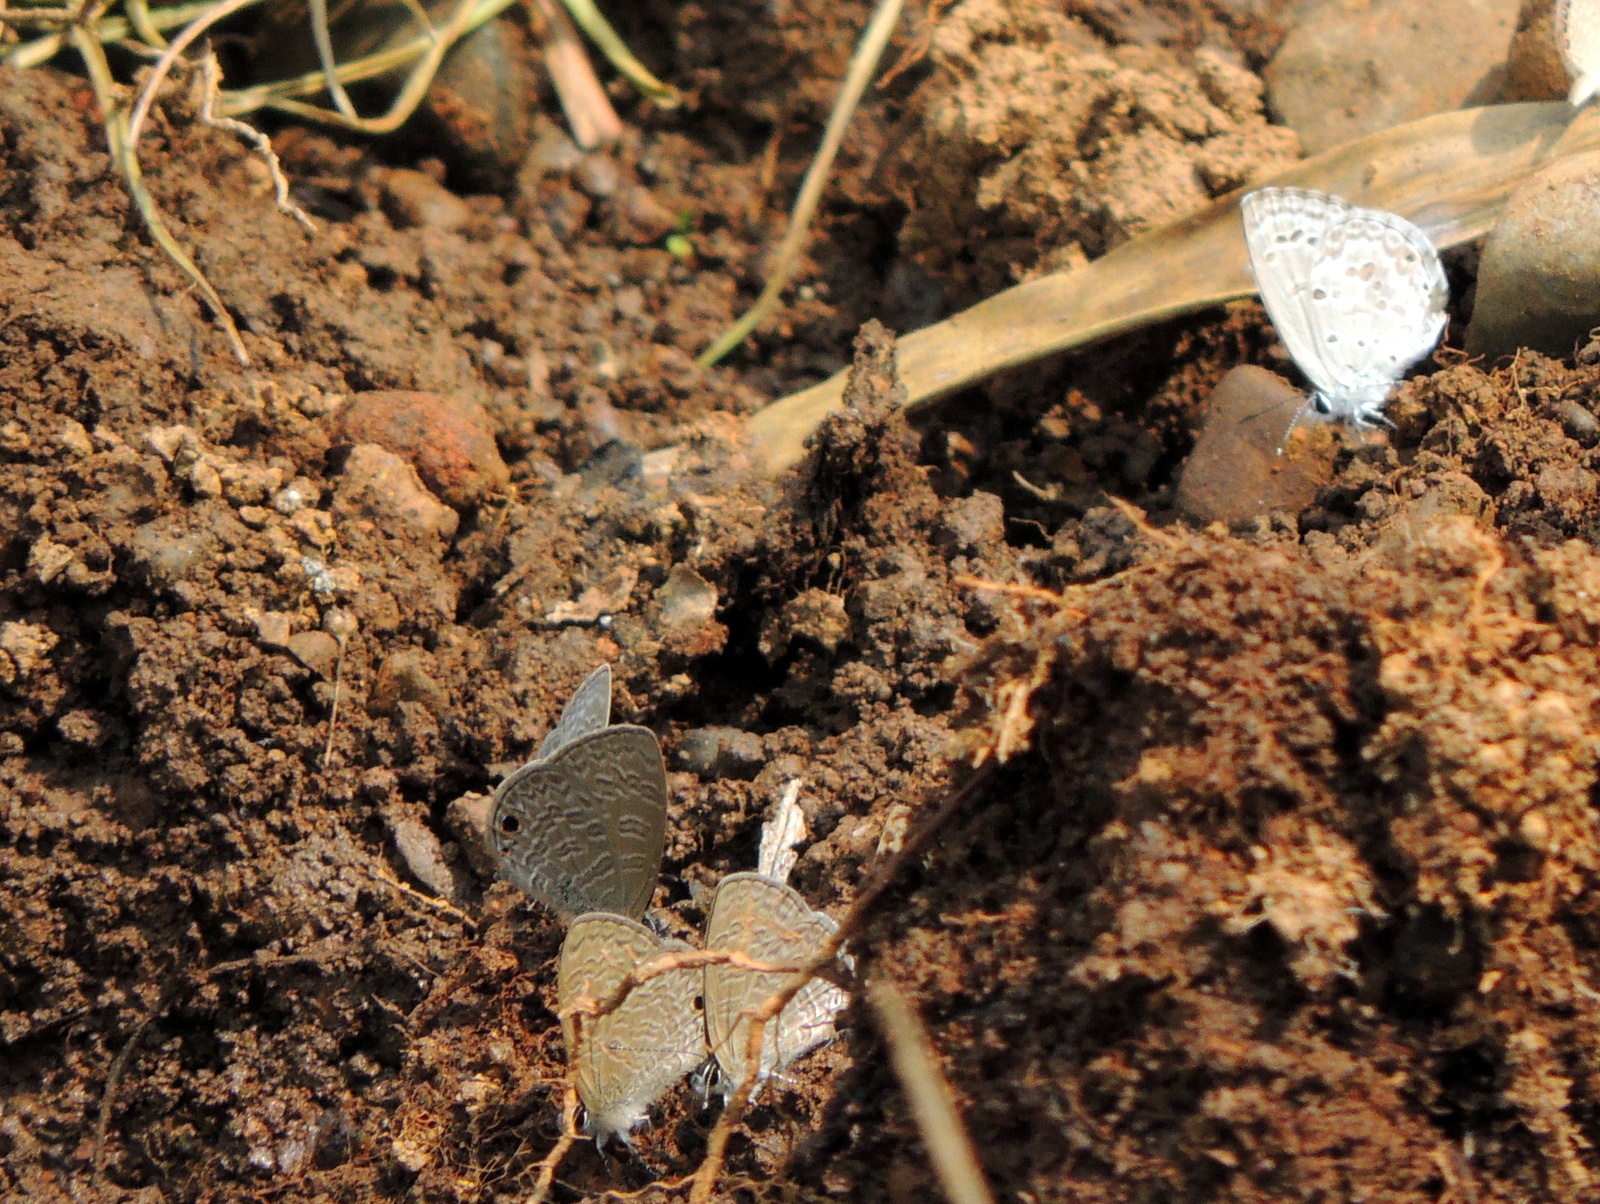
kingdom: Animalia
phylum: Arthropoda
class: Insecta
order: Lepidoptera
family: Lycaenidae
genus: Chilades
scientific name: Chilades laius
